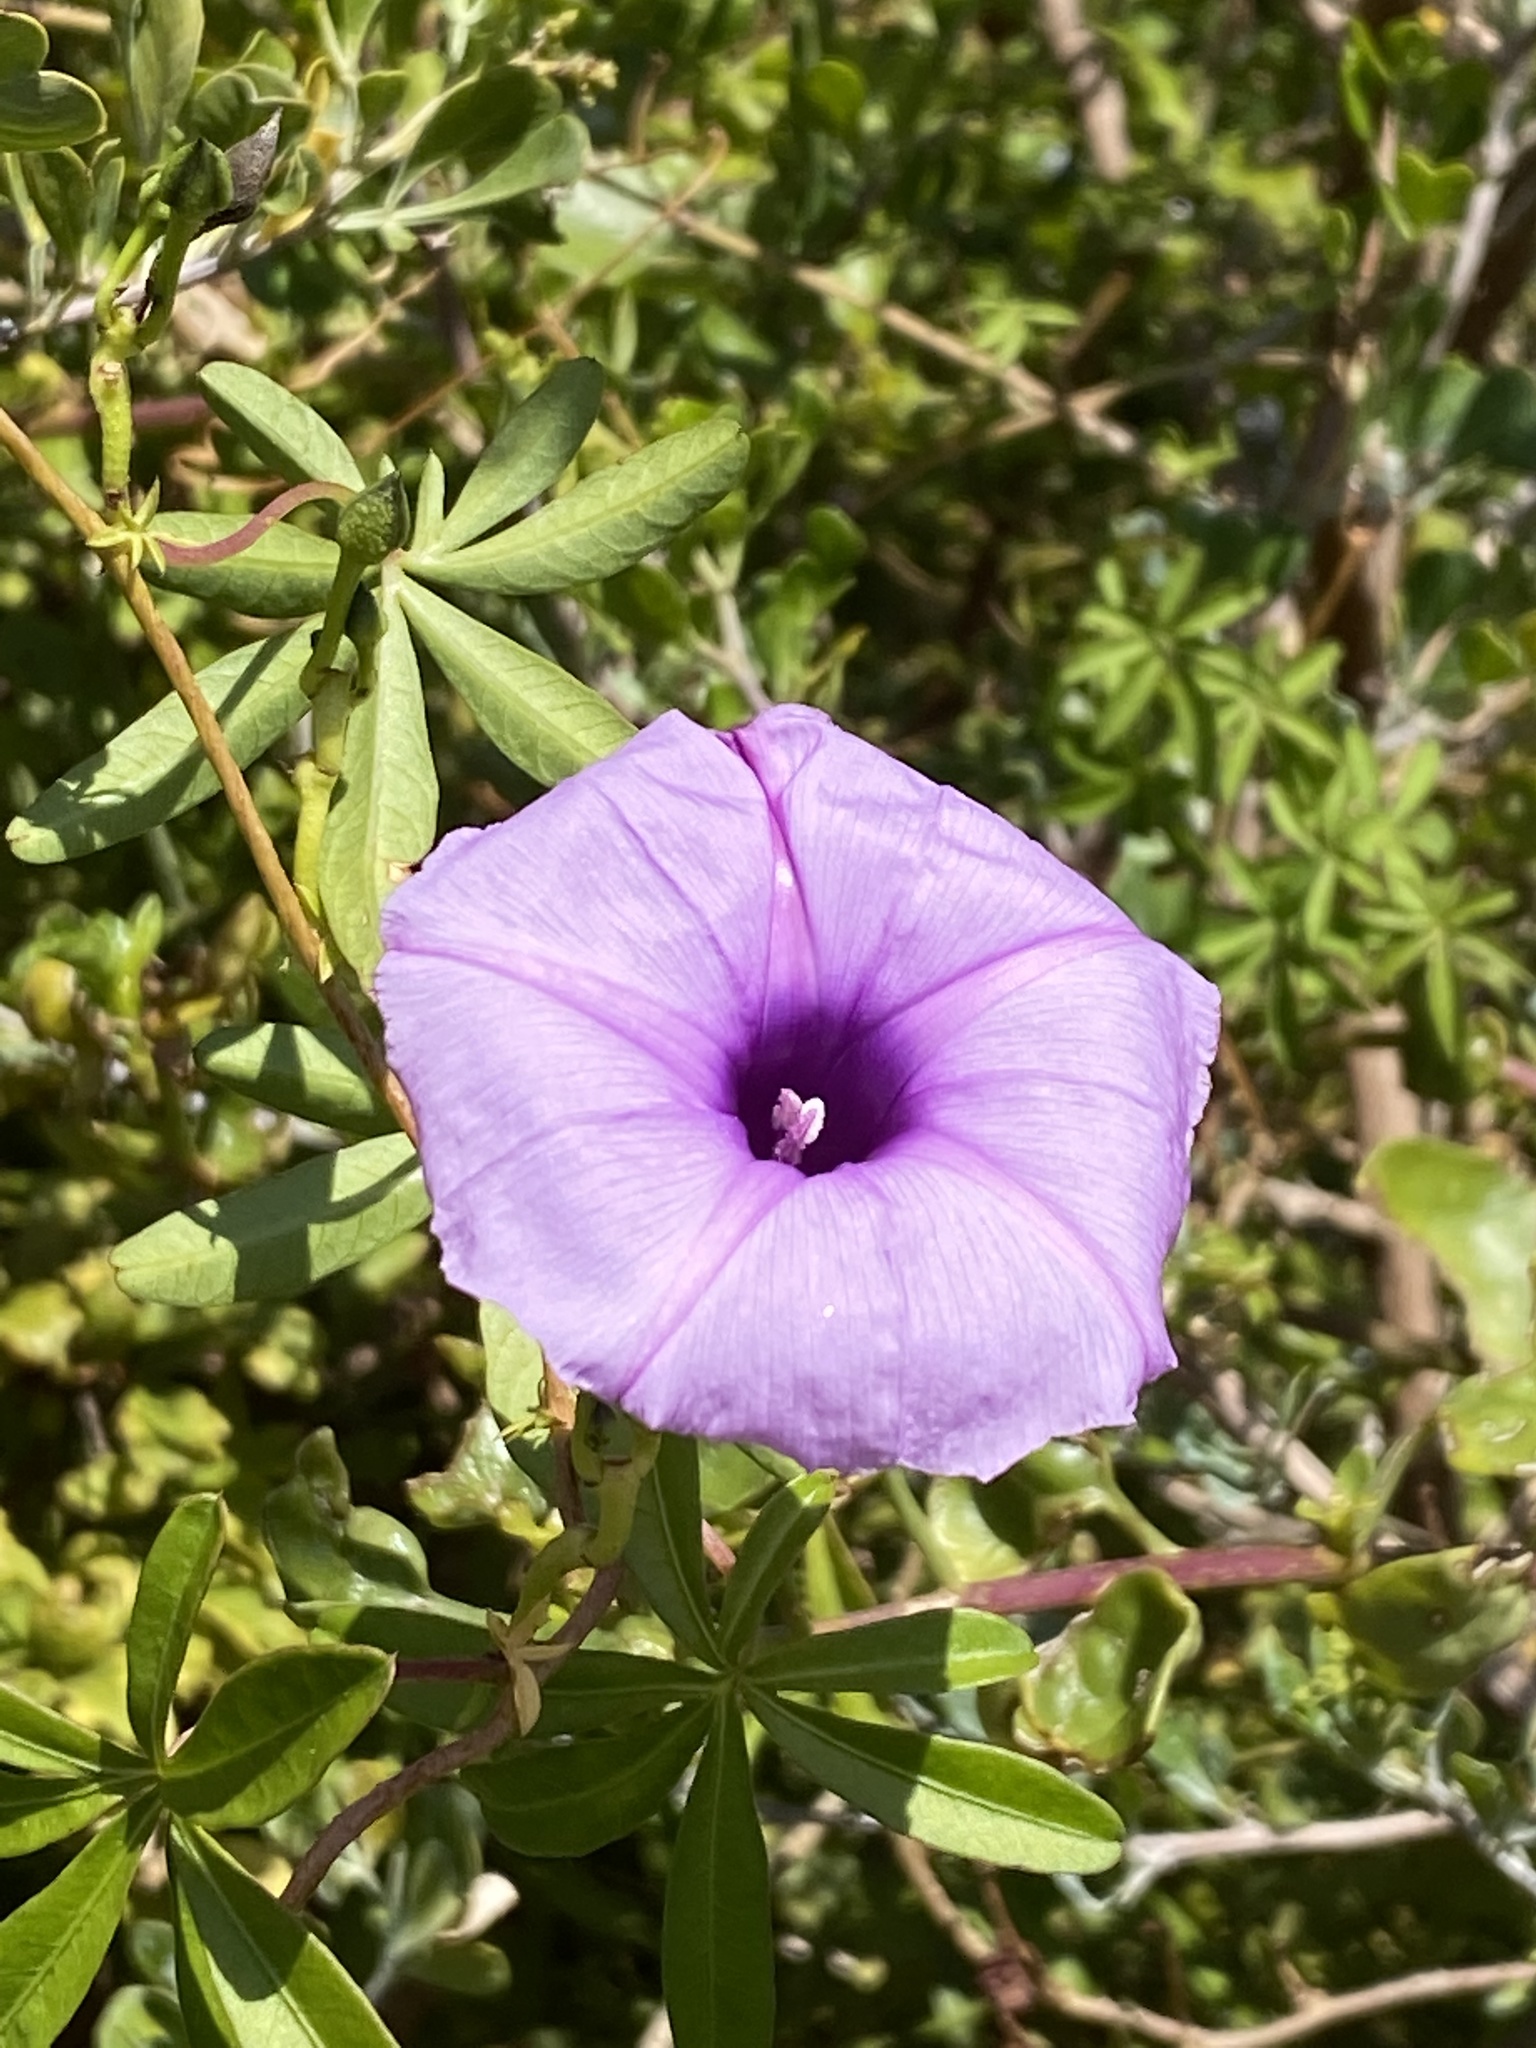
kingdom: Plantae
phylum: Tracheophyta
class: Magnoliopsida
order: Solanales
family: Convolvulaceae
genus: Ipomoea
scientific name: Ipomoea cairica
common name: Mile a minute vine
